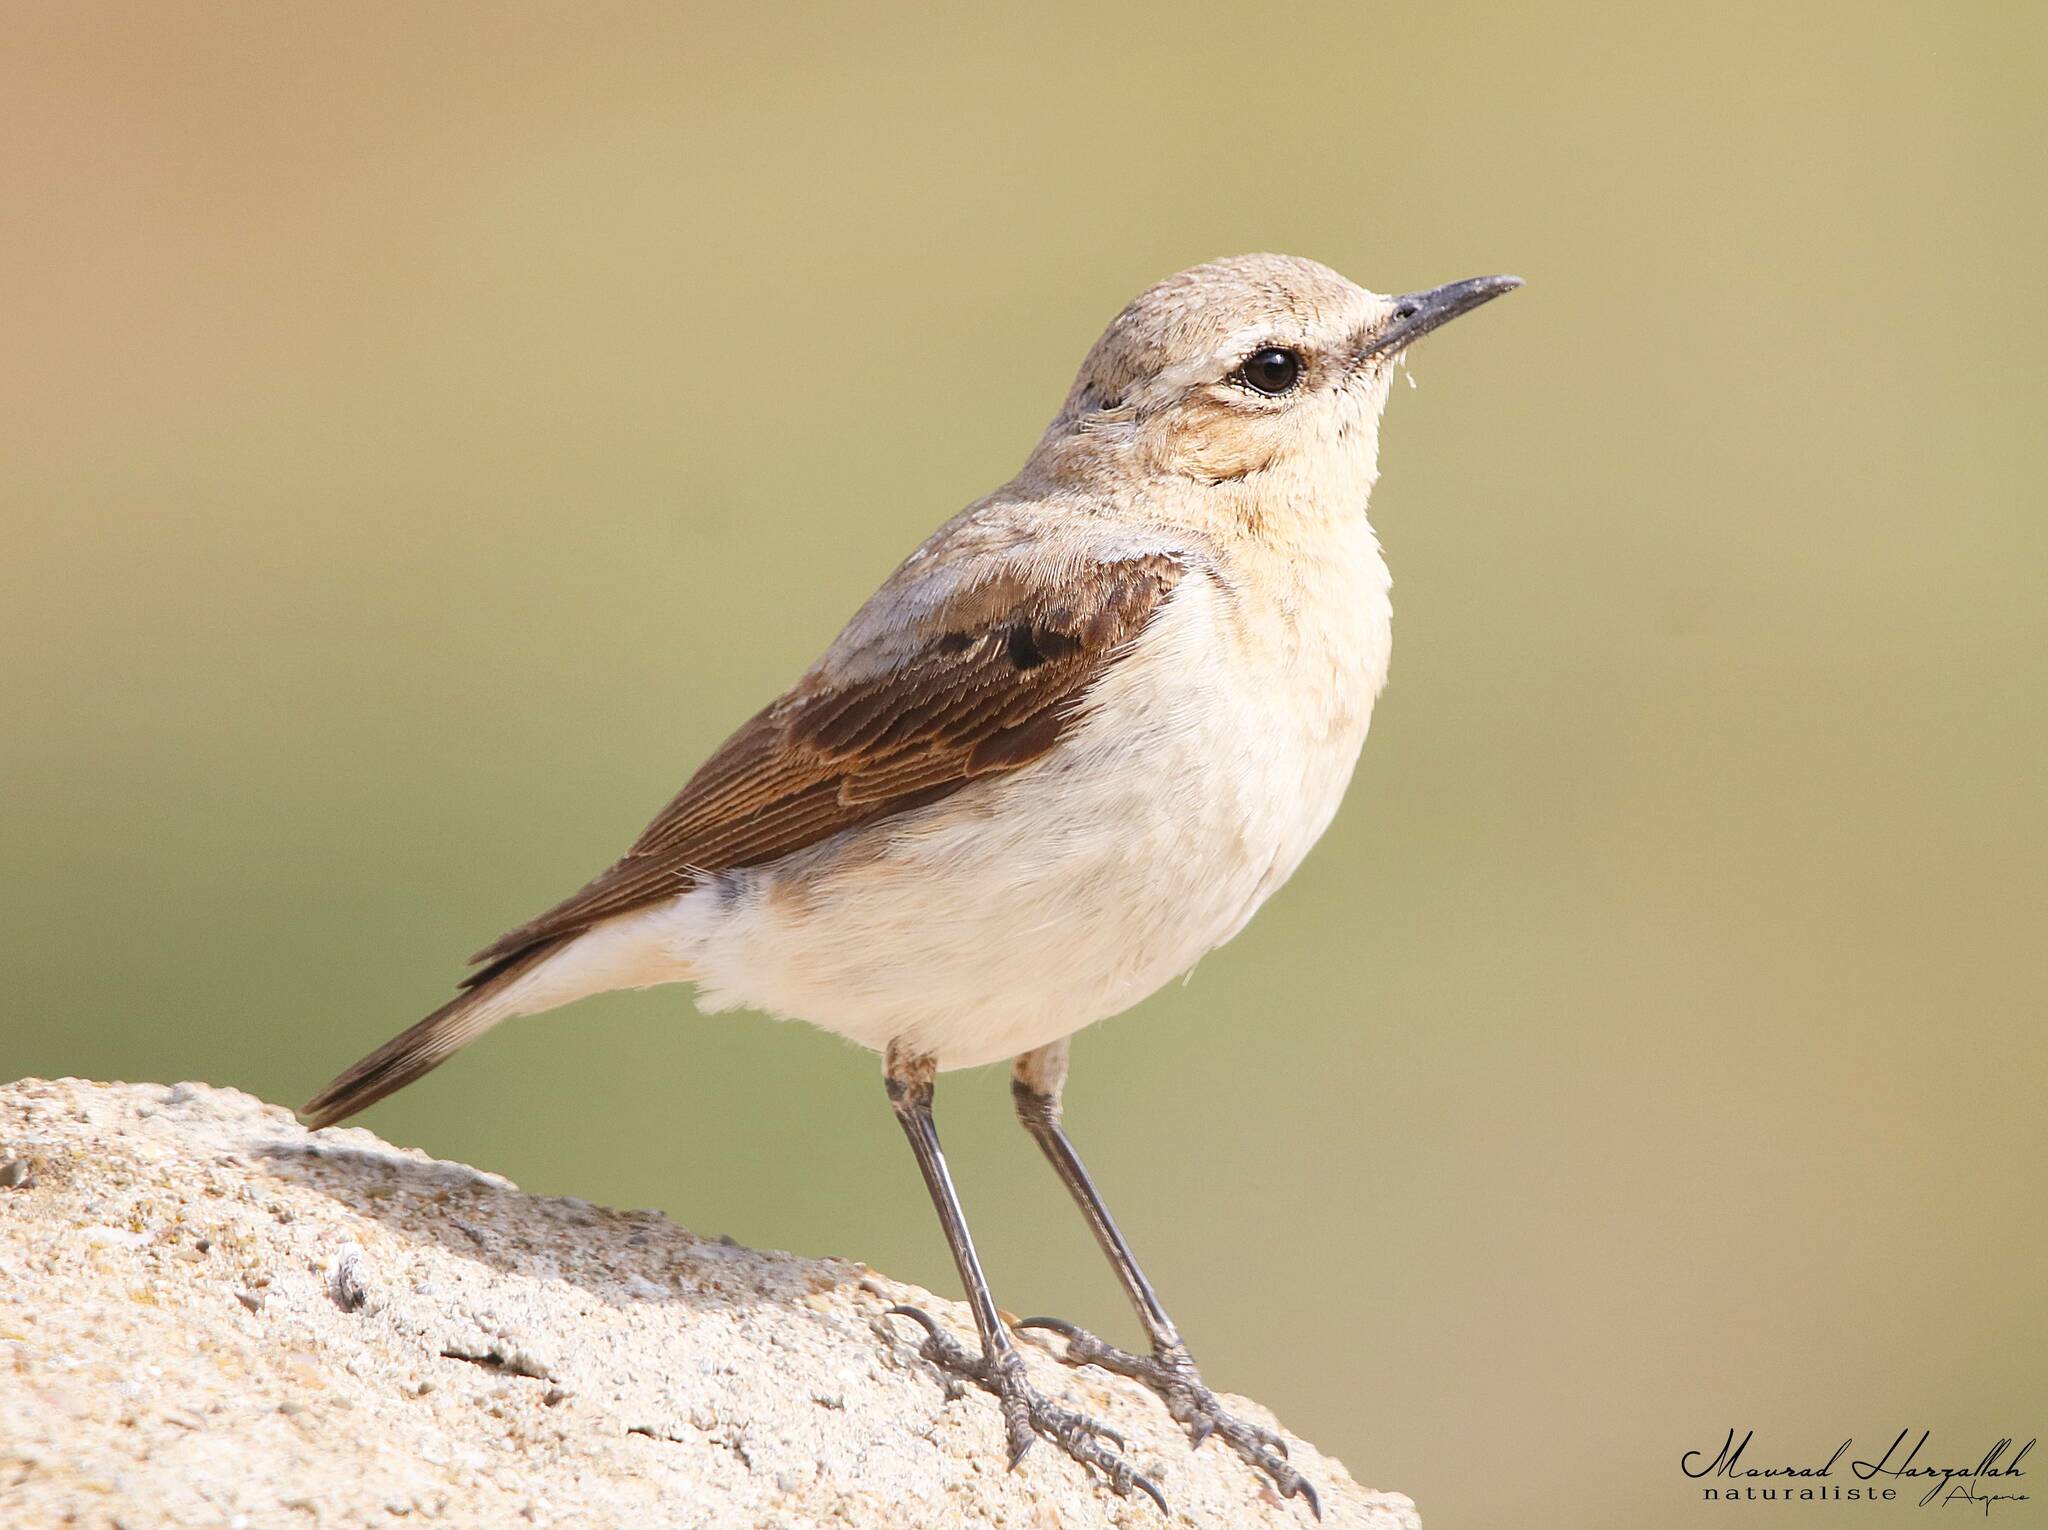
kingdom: Animalia
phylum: Chordata
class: Aves
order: Passeriformes
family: Muscicapidae
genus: Oenanthe
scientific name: Oenanthe oenanthe
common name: Northern wheatear
